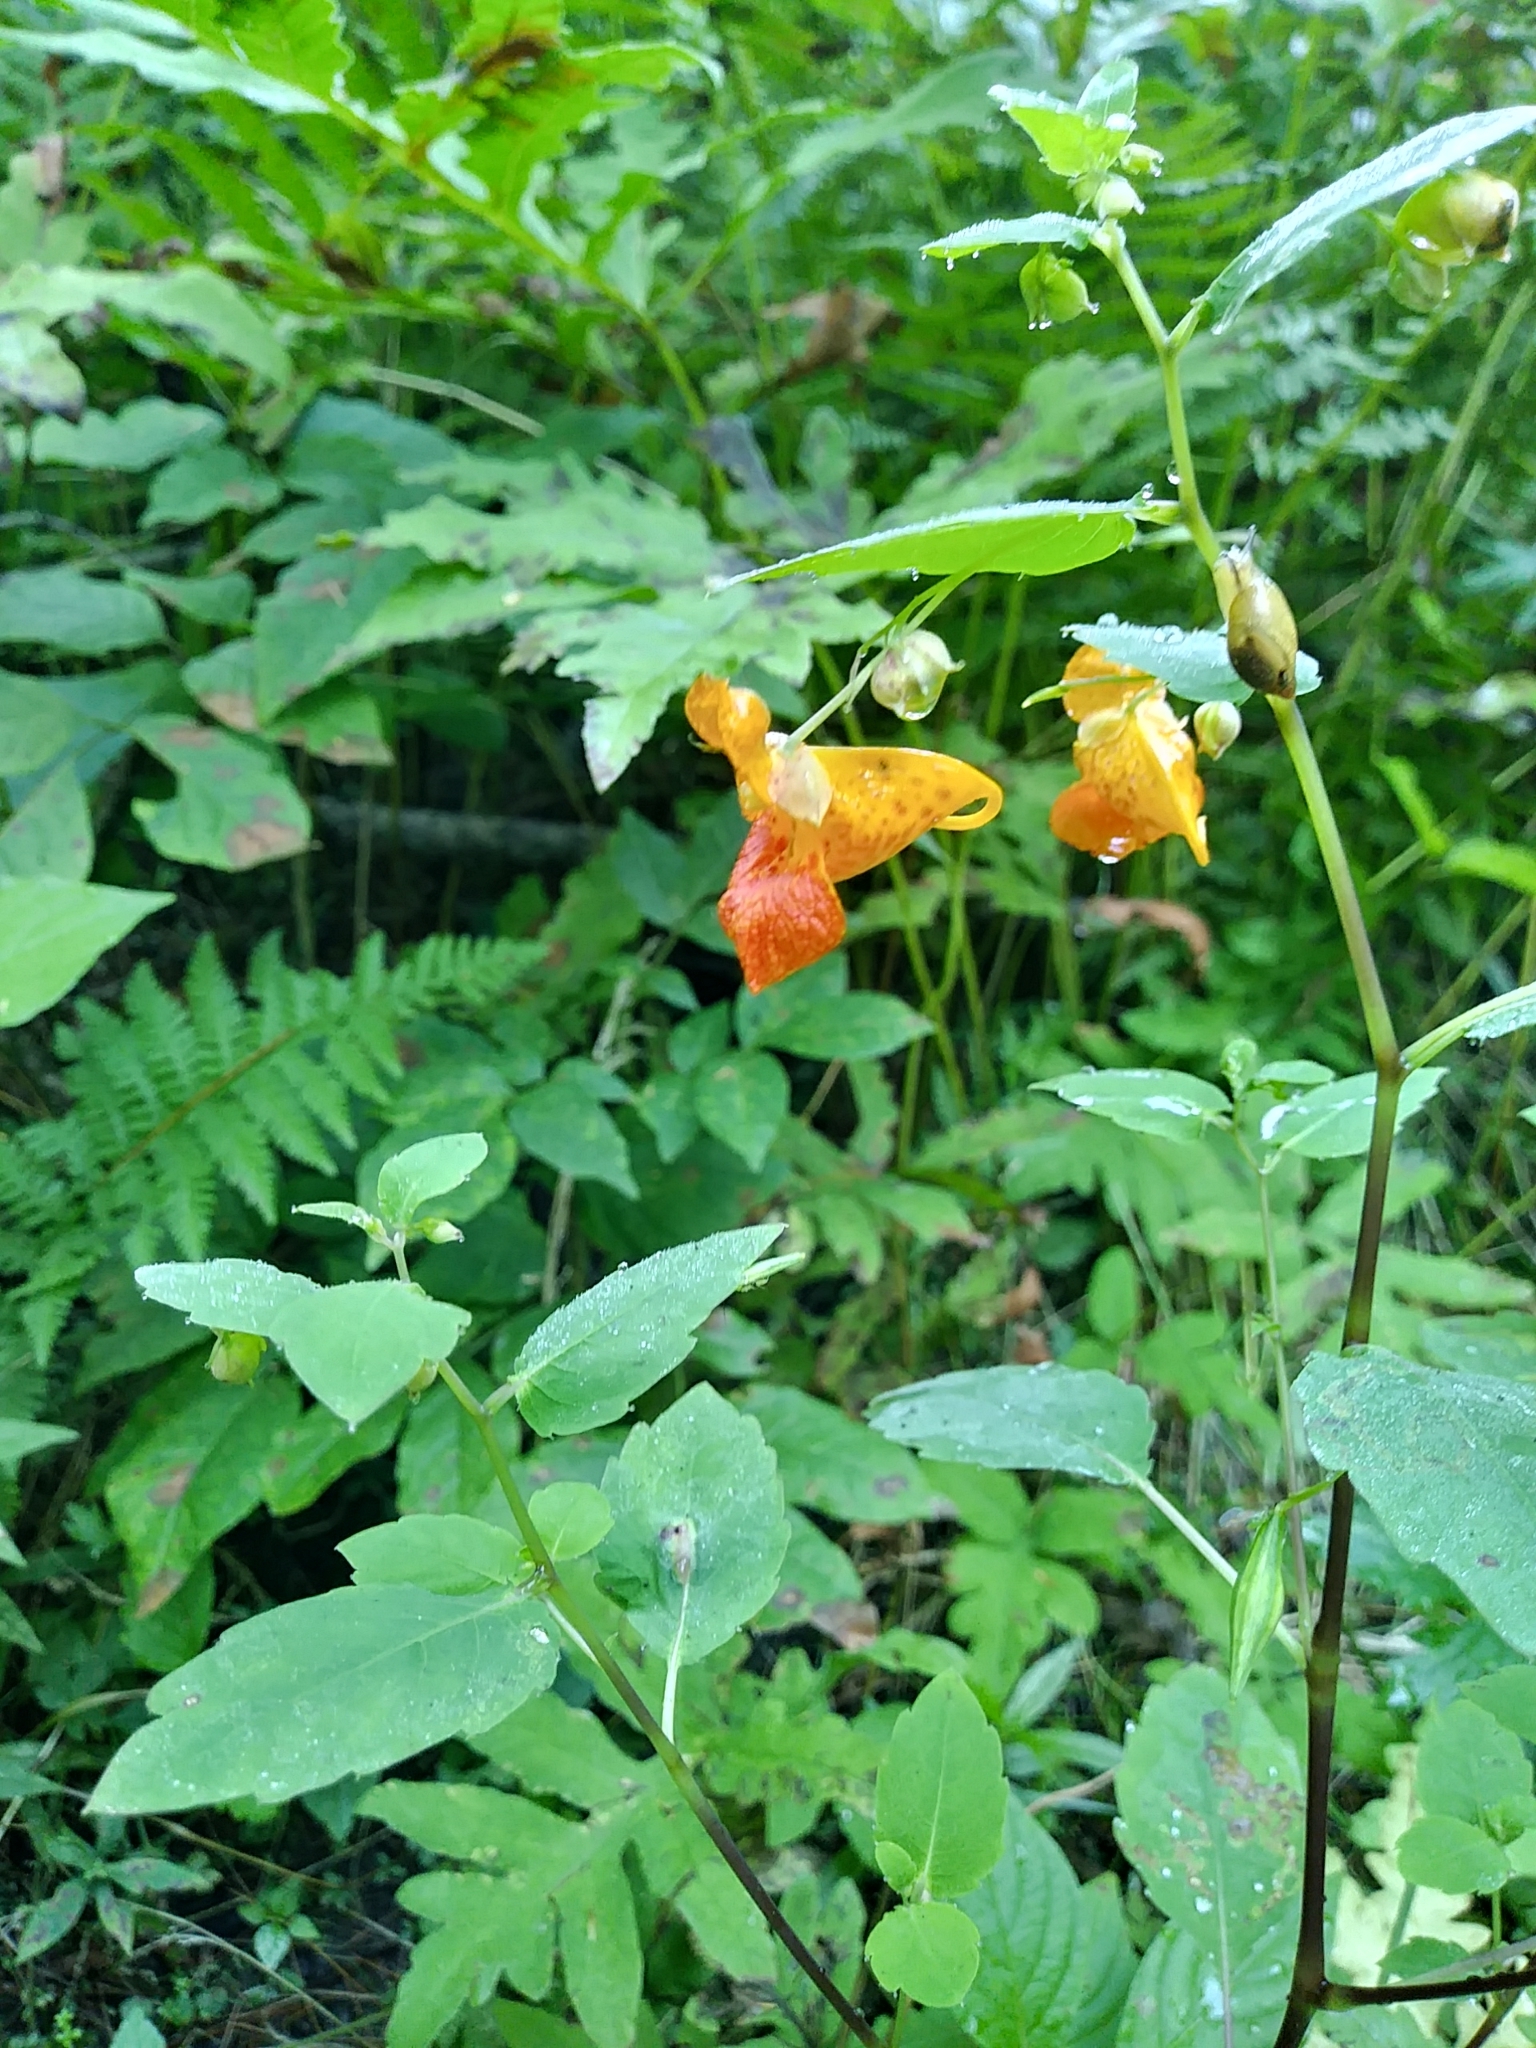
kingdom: Plantae
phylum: Tracheophyta
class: Magnoliopsida
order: Ericales
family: Balsaminaceae
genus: Impatiens
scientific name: Impatiens capensis
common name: Orange balsam
